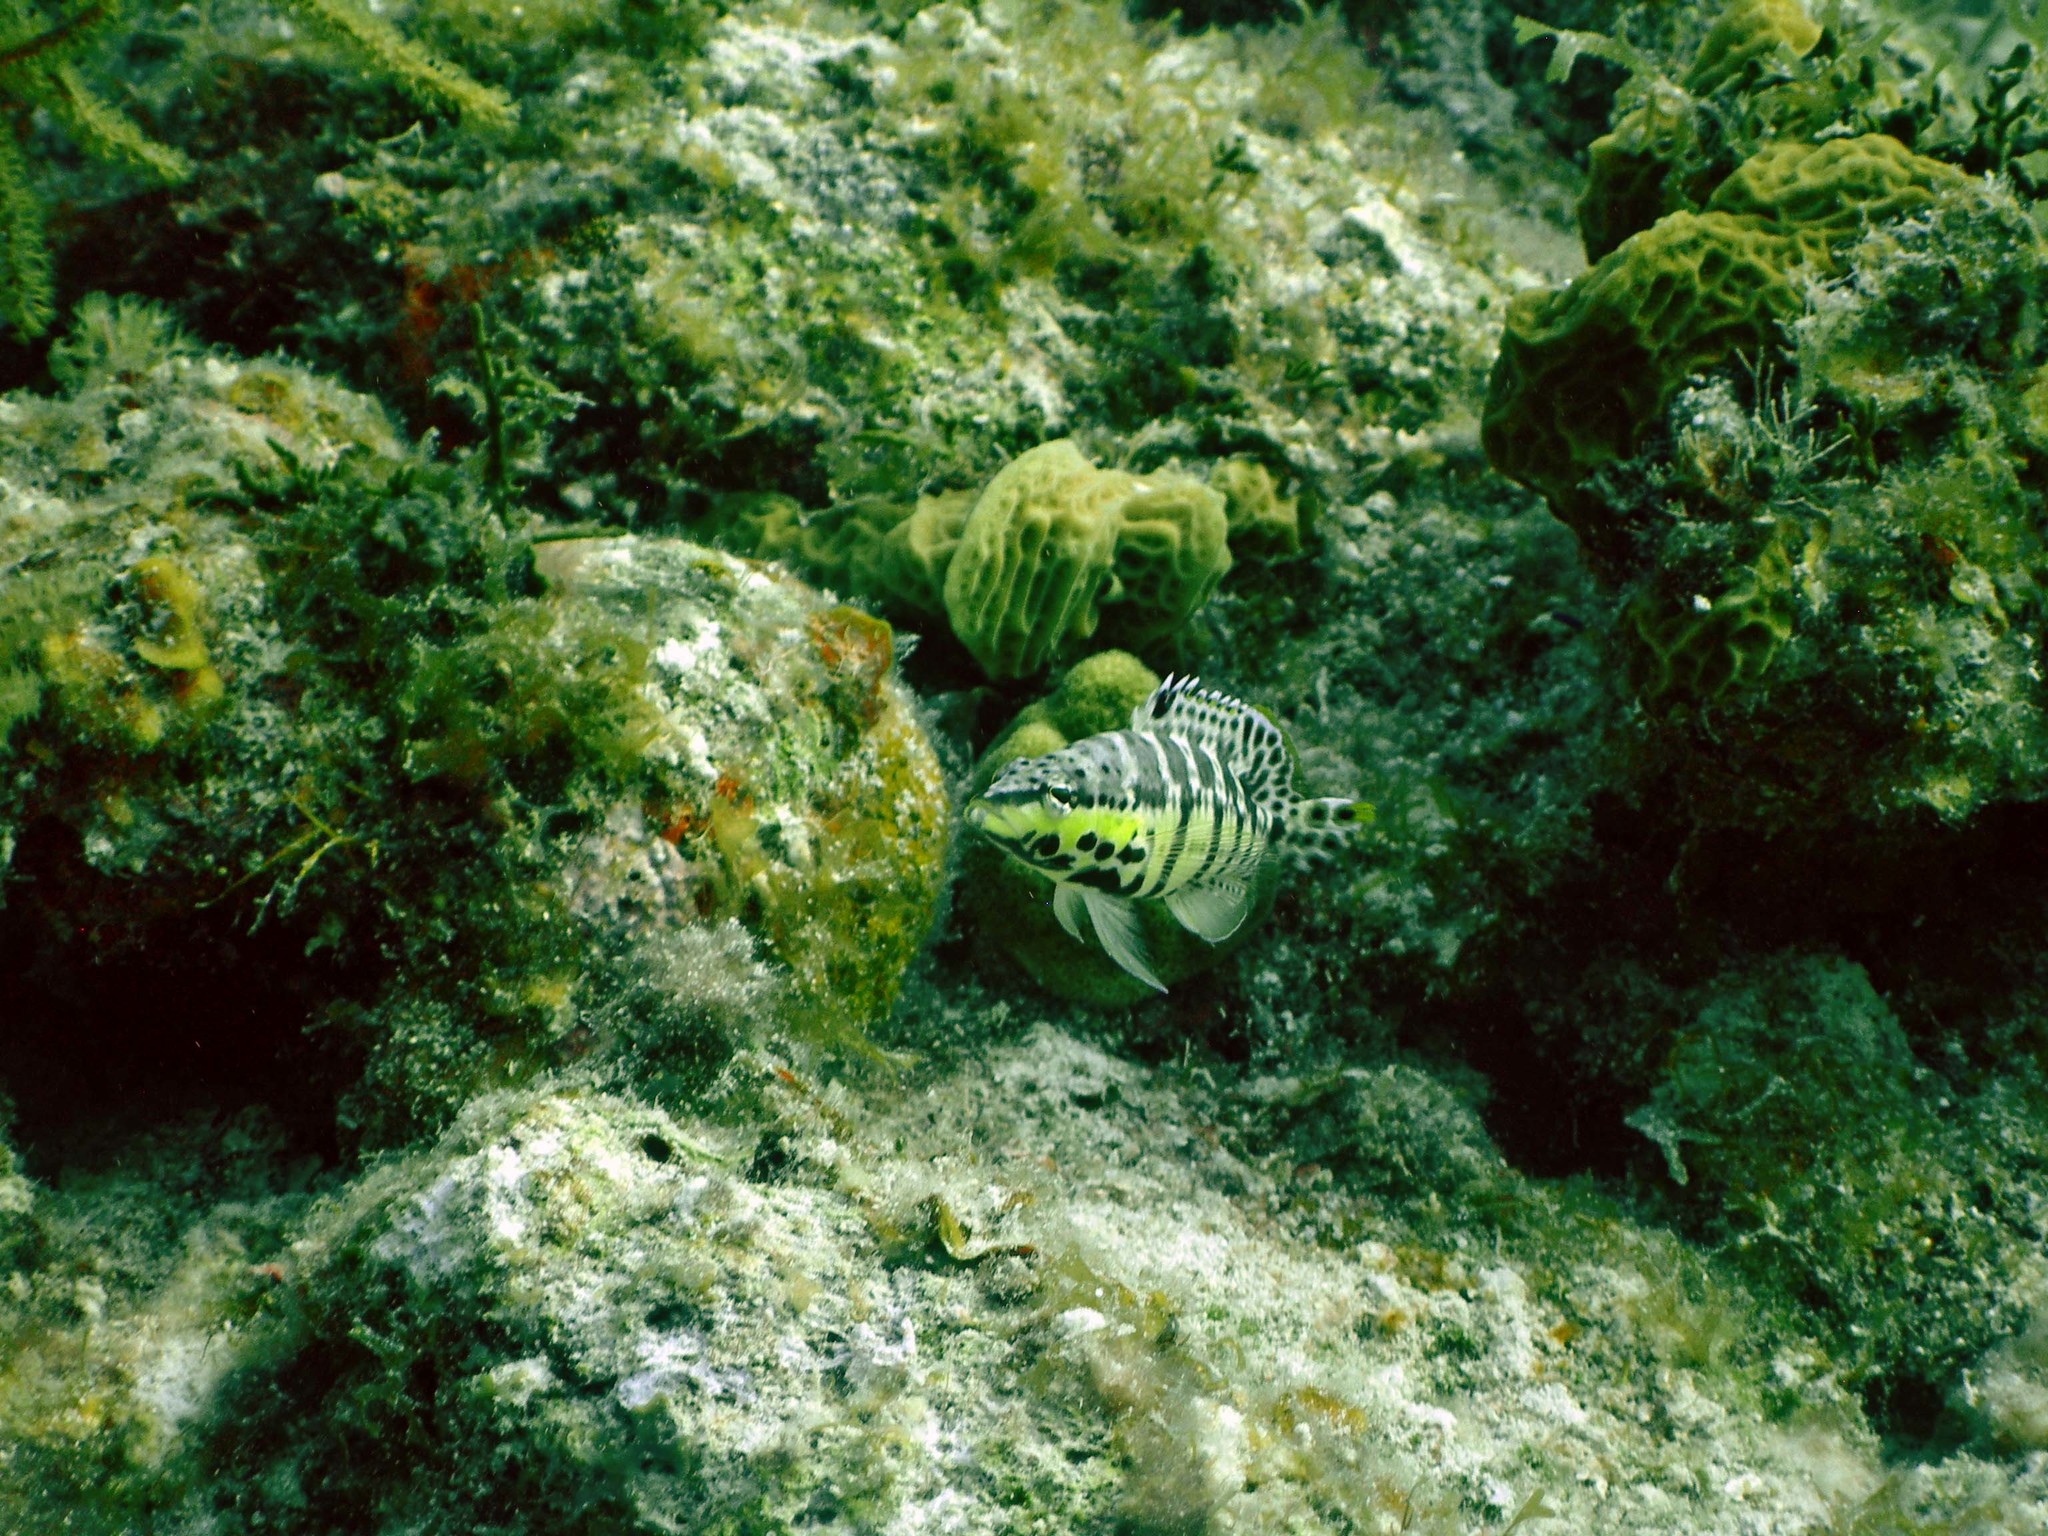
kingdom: Animalia
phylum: Chordata
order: Perciformes
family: Serranidae
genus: Serranus
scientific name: Serranus tigrinus
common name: Harlequin bass
